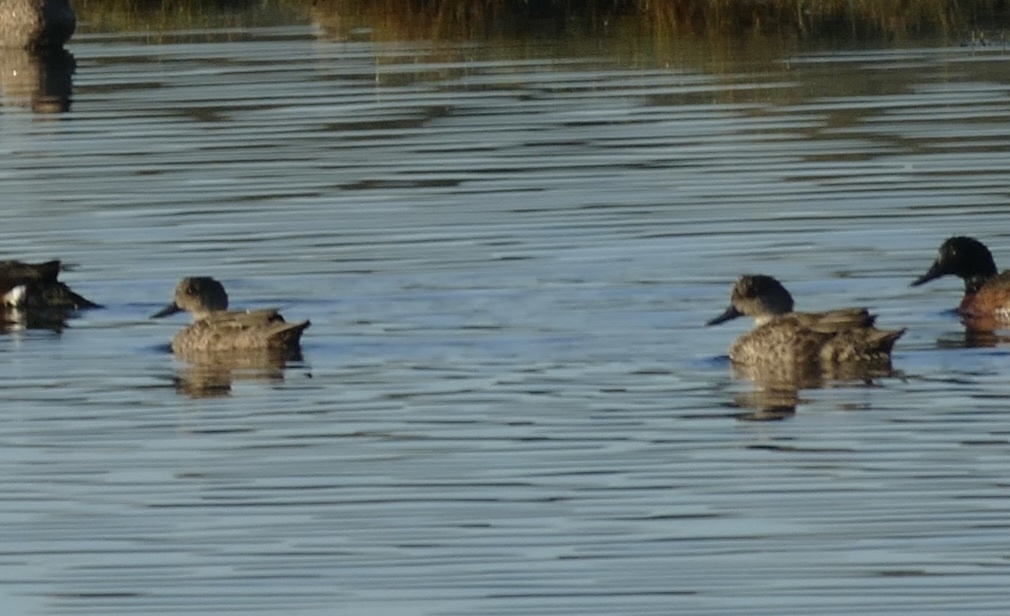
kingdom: Animalia
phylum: Chordata
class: Aves
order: Anseriformes
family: Anatidae
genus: Anas
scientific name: Anas gracilis
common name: Grey teal
